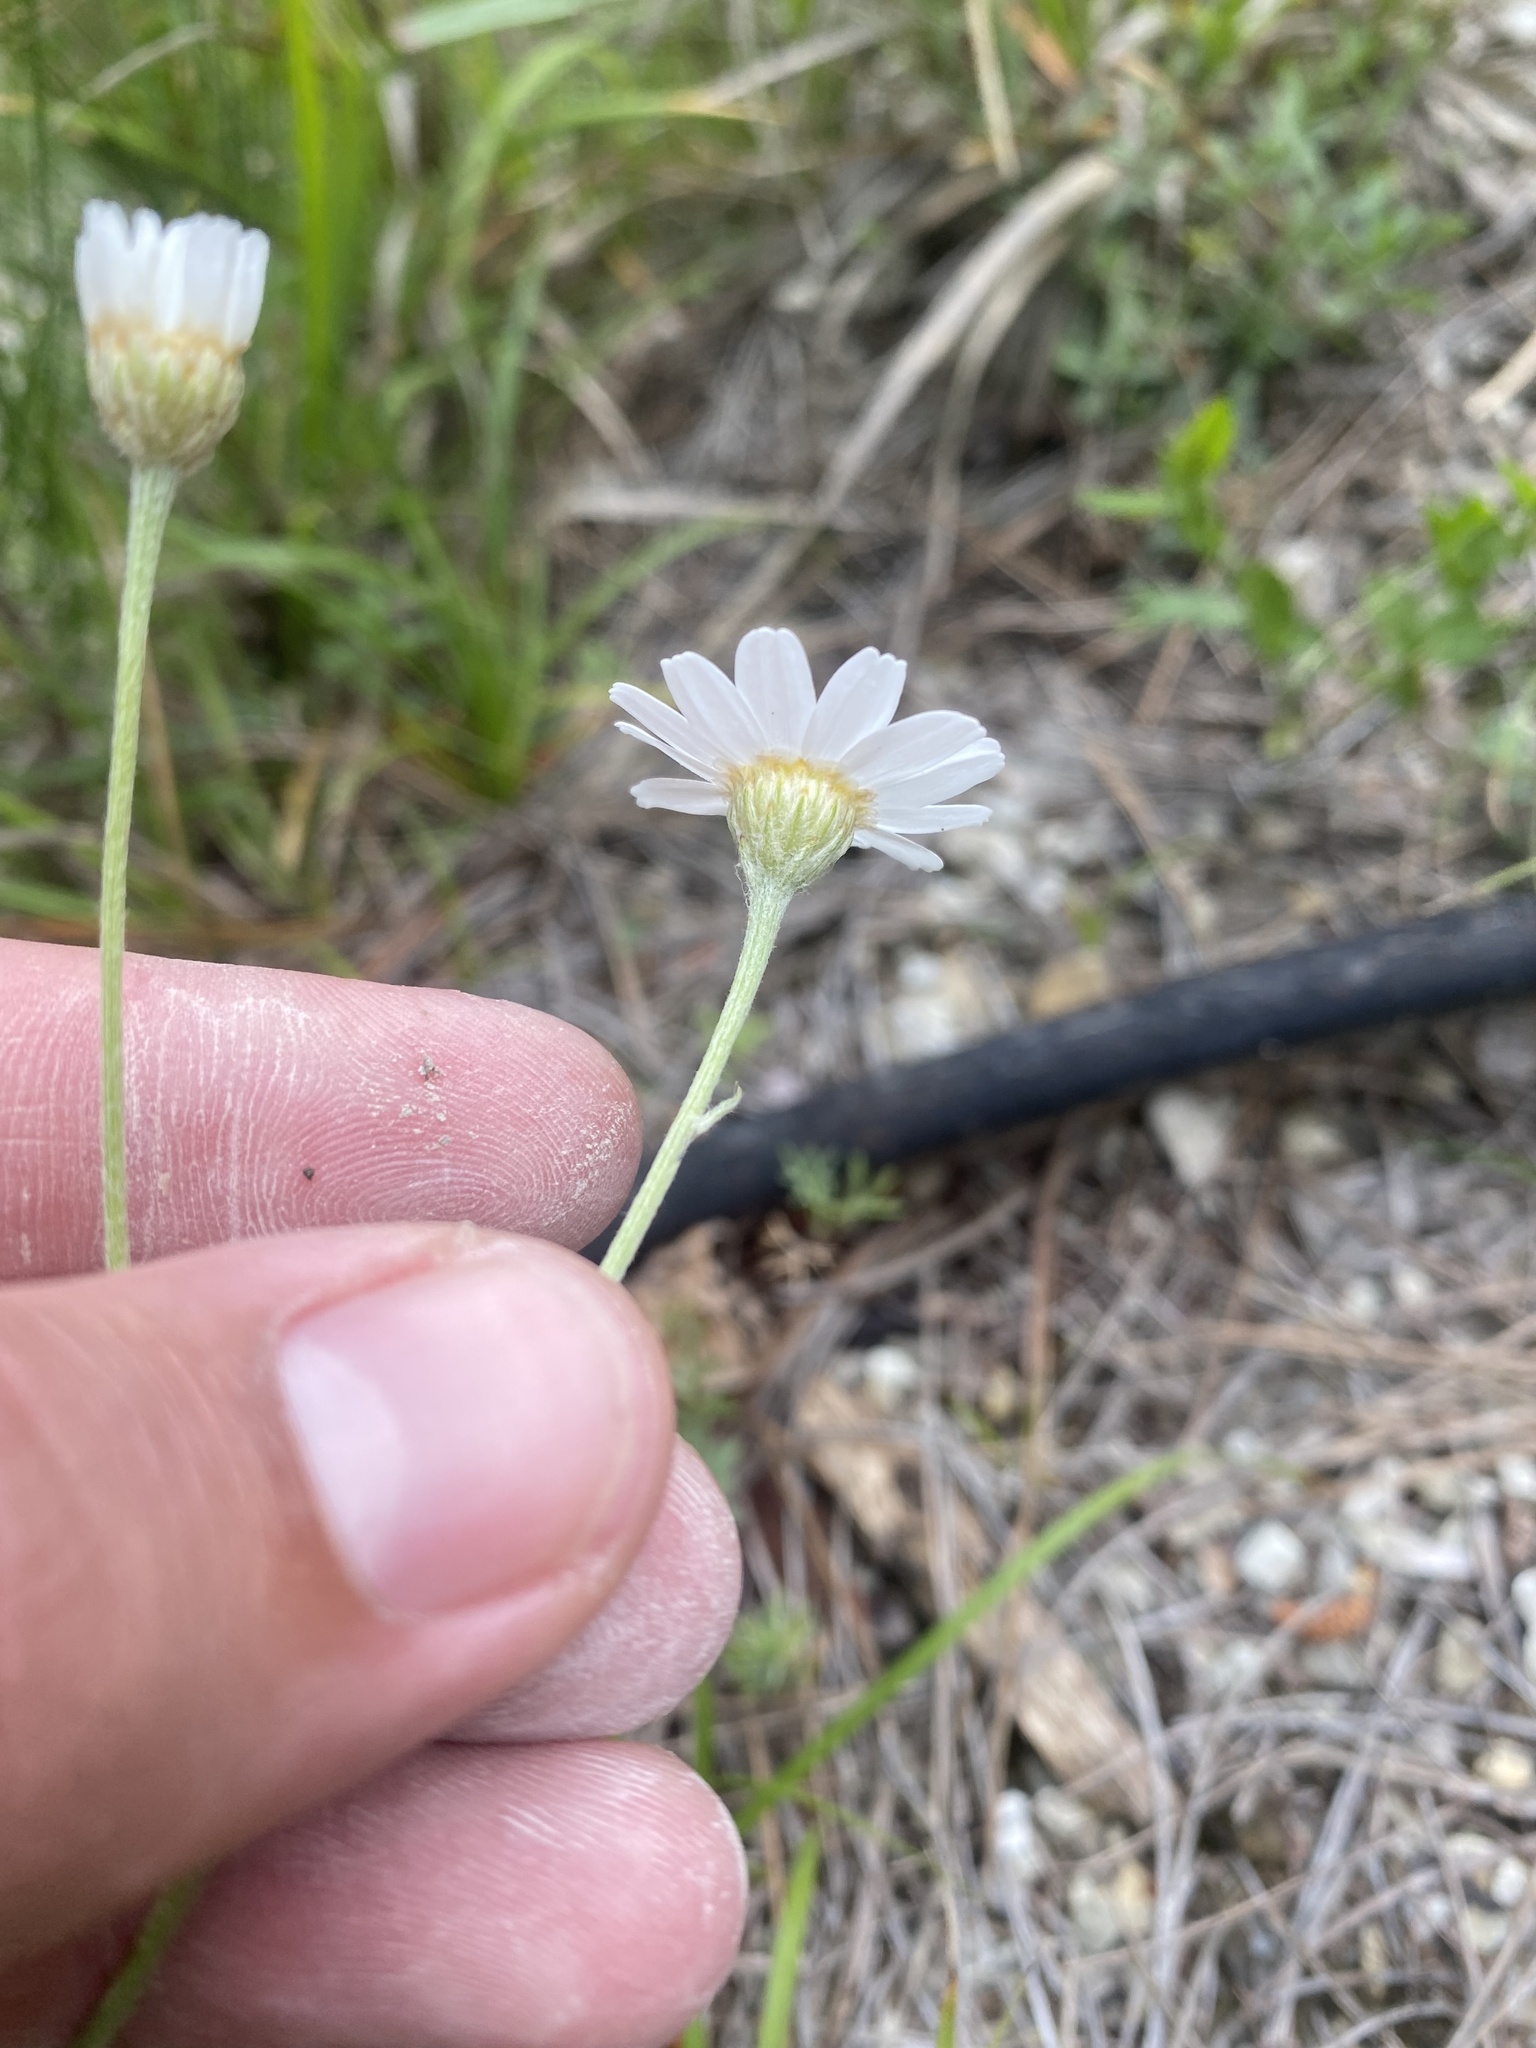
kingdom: Plantae
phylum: Tracheophyta
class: Magnoliopsida
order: Asterales
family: Asteraceae
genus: Tanacetum
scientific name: Tanacetum poteriifolium
